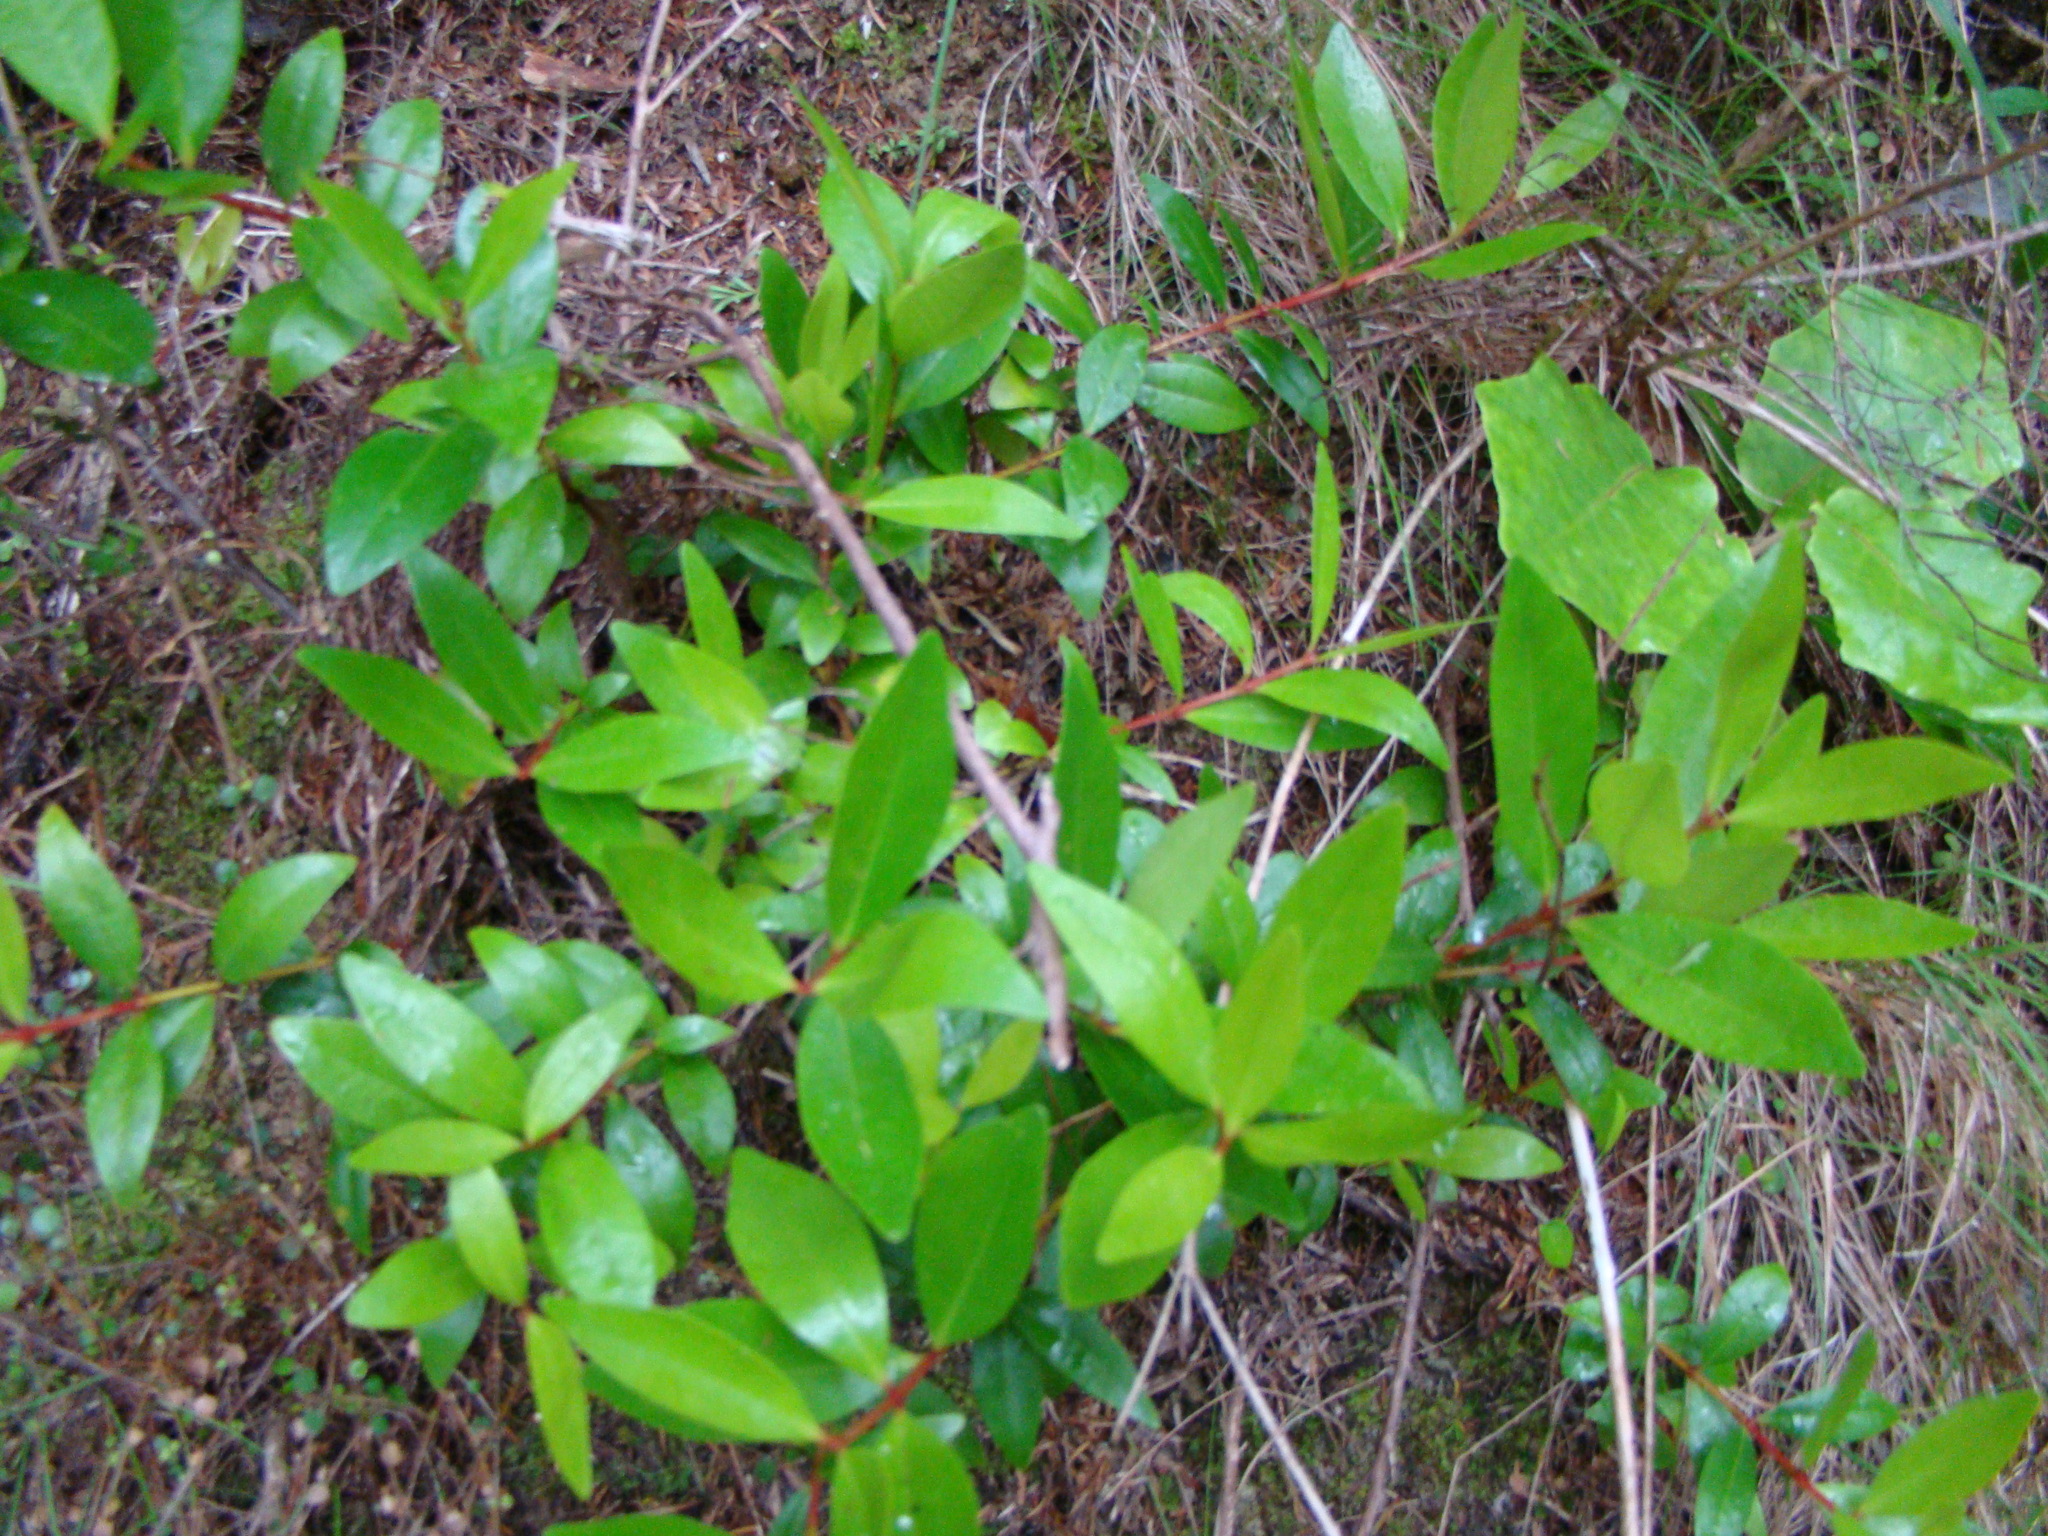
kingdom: Plantae
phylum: Tracheophyta
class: Magnoliopsida
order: Myrtales
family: Myrtaceae
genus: Metrosideros
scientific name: Metrosideros excelsa
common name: New zealand christmastree
